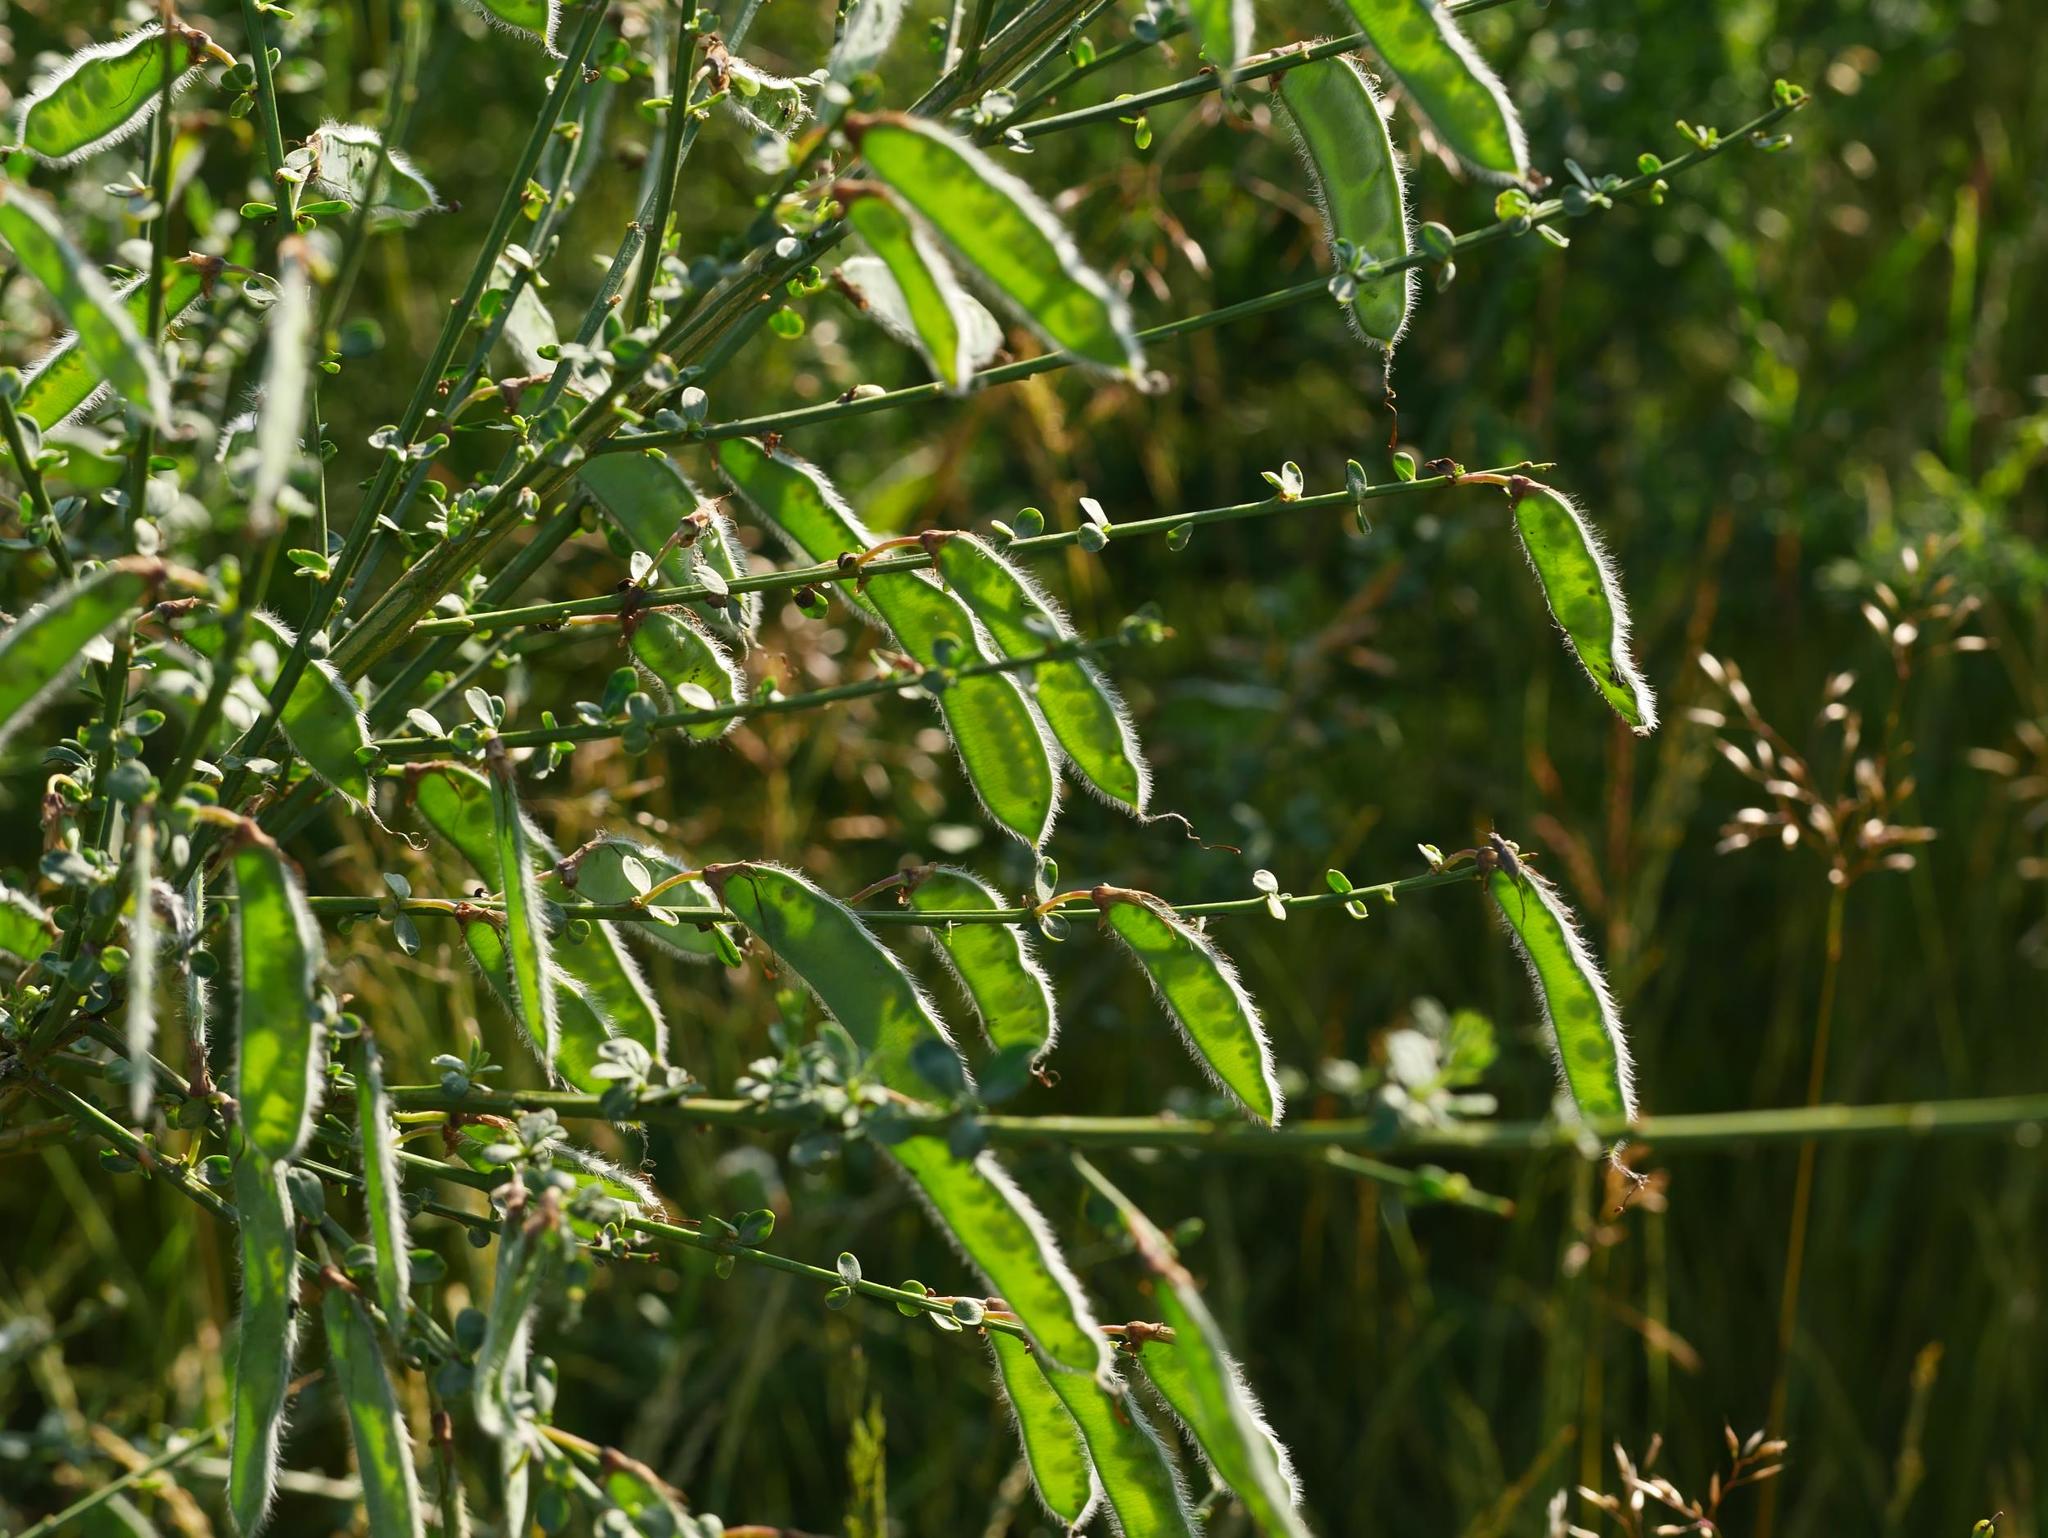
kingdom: Plantae
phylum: Tracheophyta
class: Magnoliopsida
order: Fabales
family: Fabaceae
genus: Cytisus
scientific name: Cytisus scoparius
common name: Scotch broom
